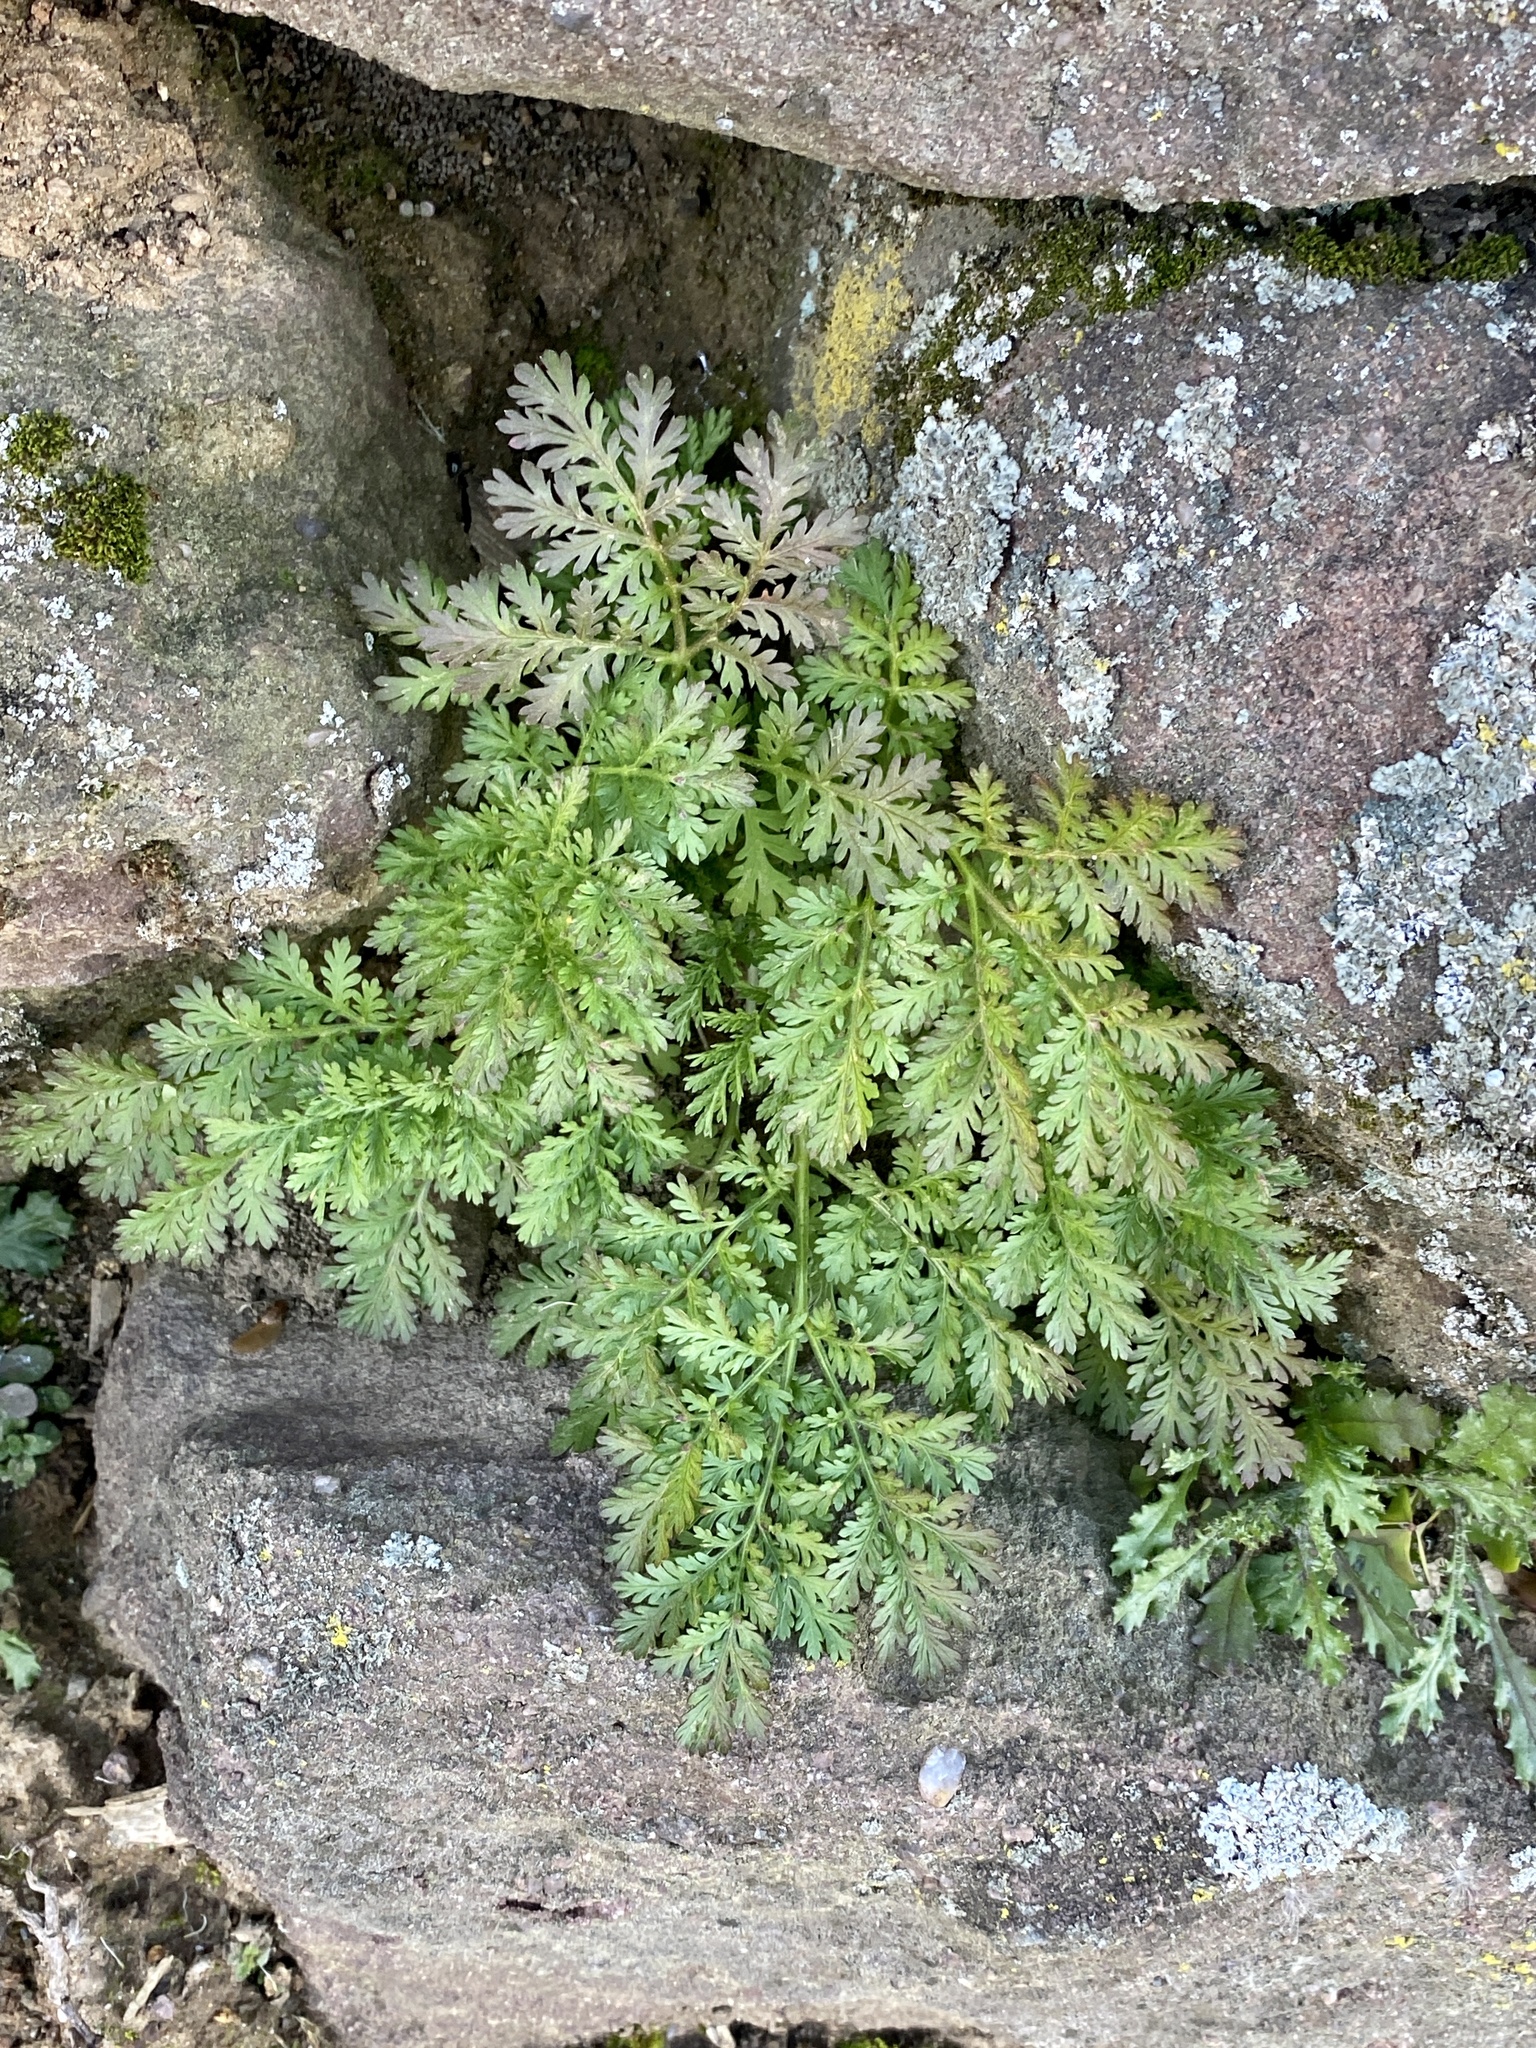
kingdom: Plantae
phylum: Tracheophyta
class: Magnoliopsida
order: Asterales
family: Asteraceae
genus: Artemisia
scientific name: Artemisia annua
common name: Sweet sagewort
